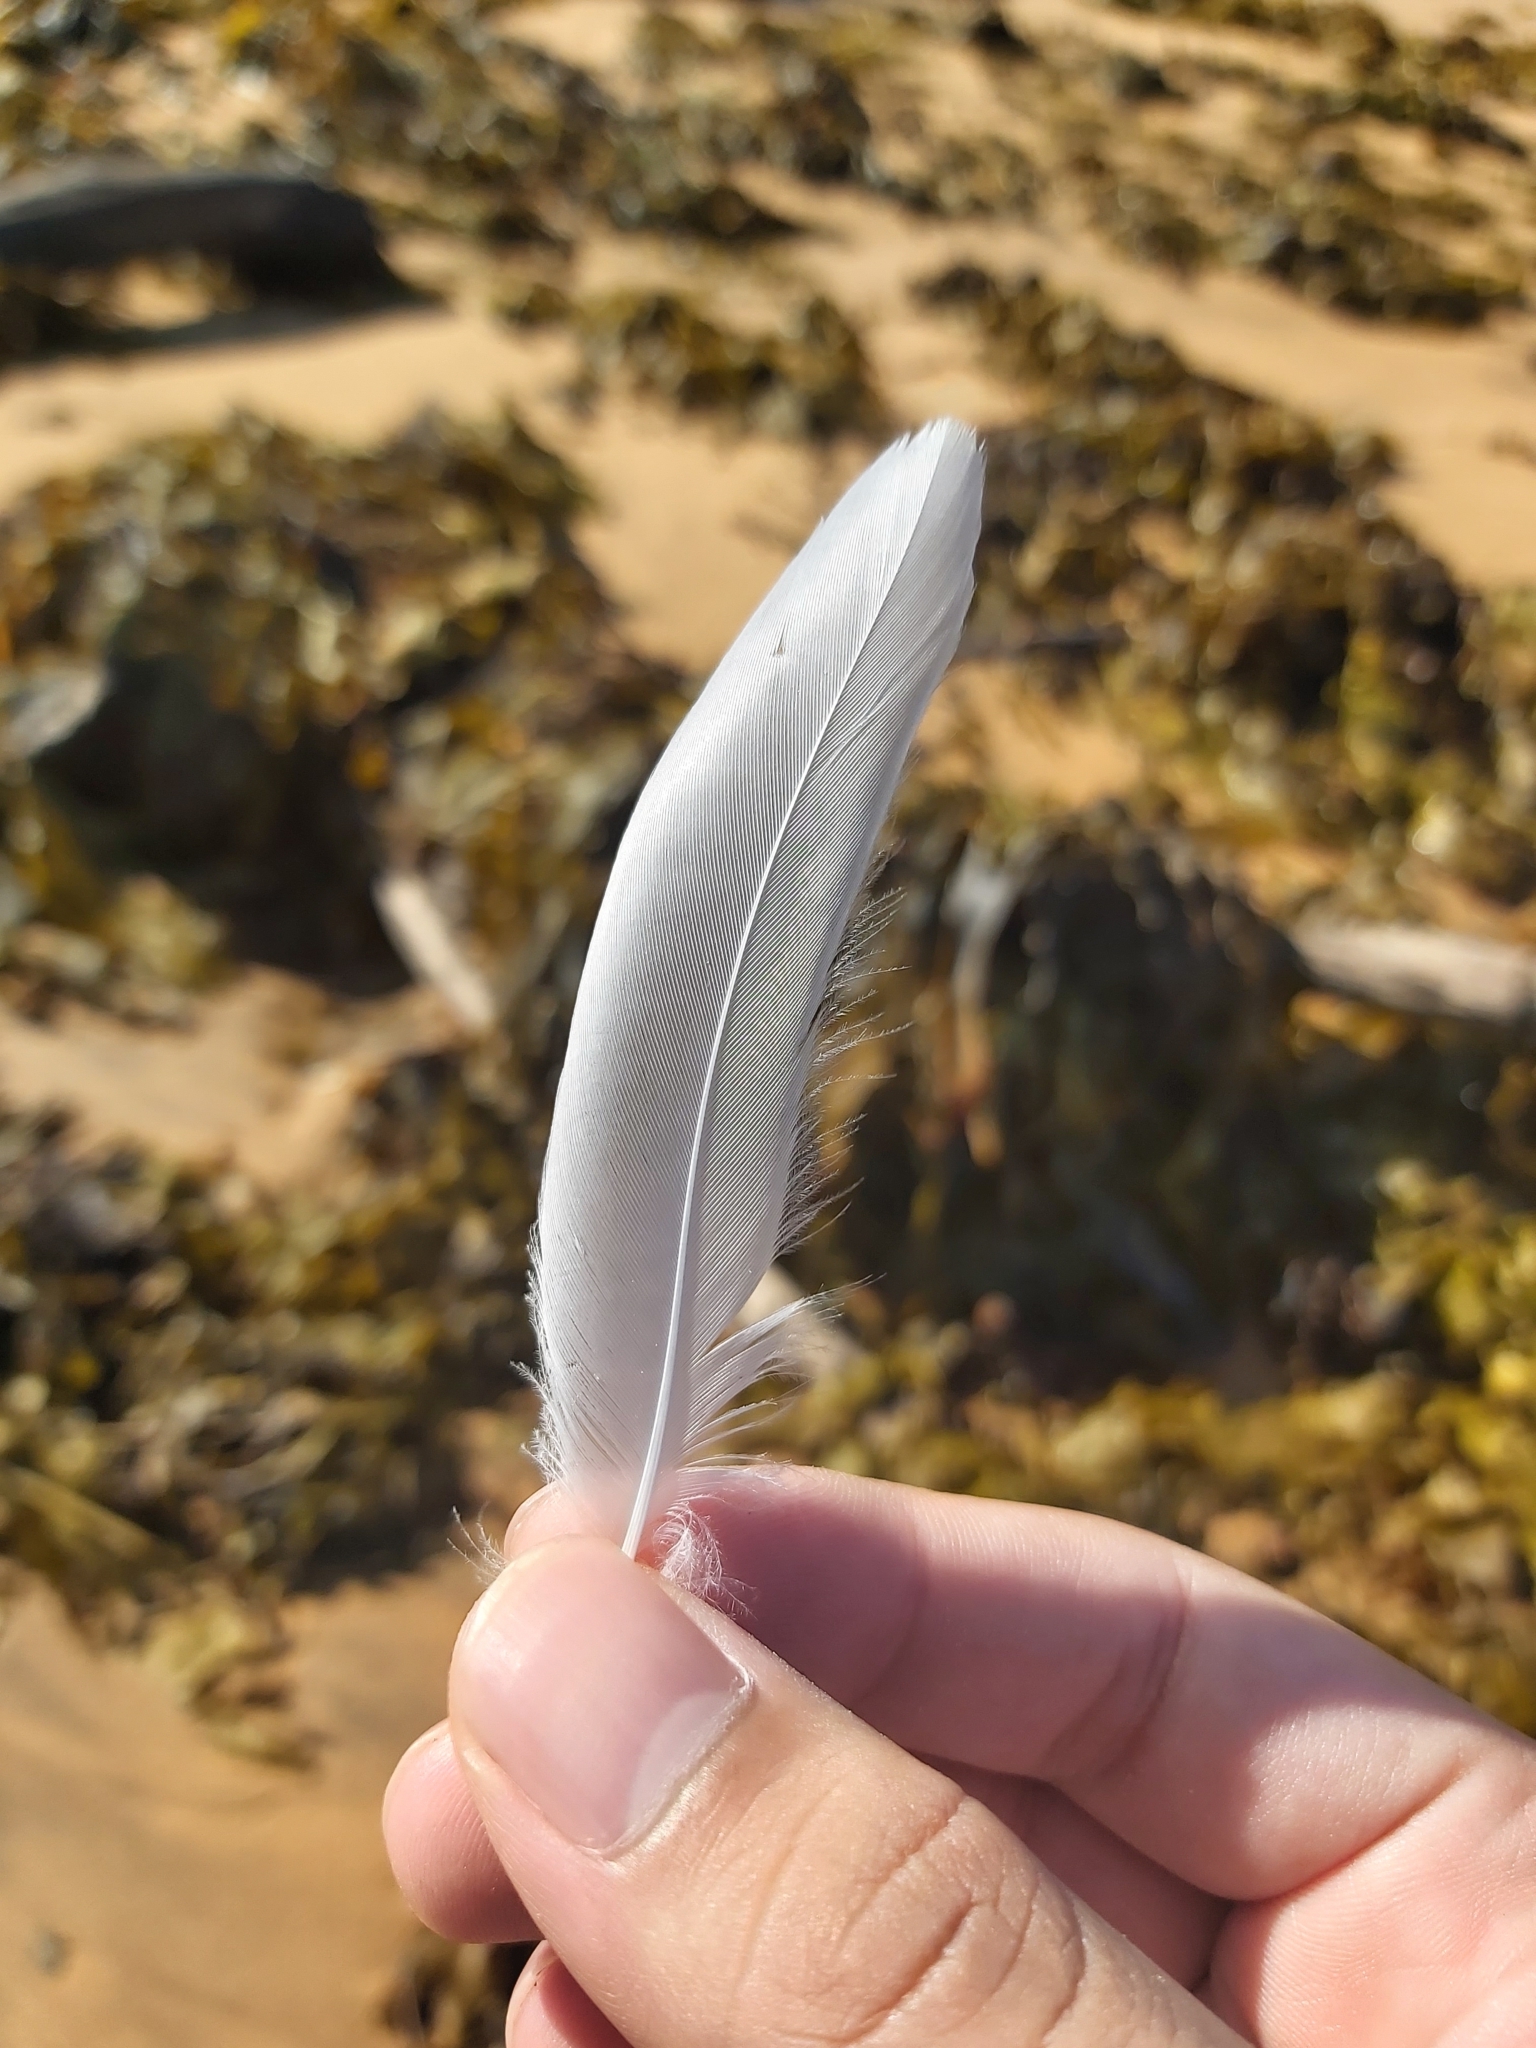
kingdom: Animalia
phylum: Chordata
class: Aves
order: Charadriiformes
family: Laridae
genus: Chroicocephalus
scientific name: Chroicocephalus novaehollandiae
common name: Silver gull
